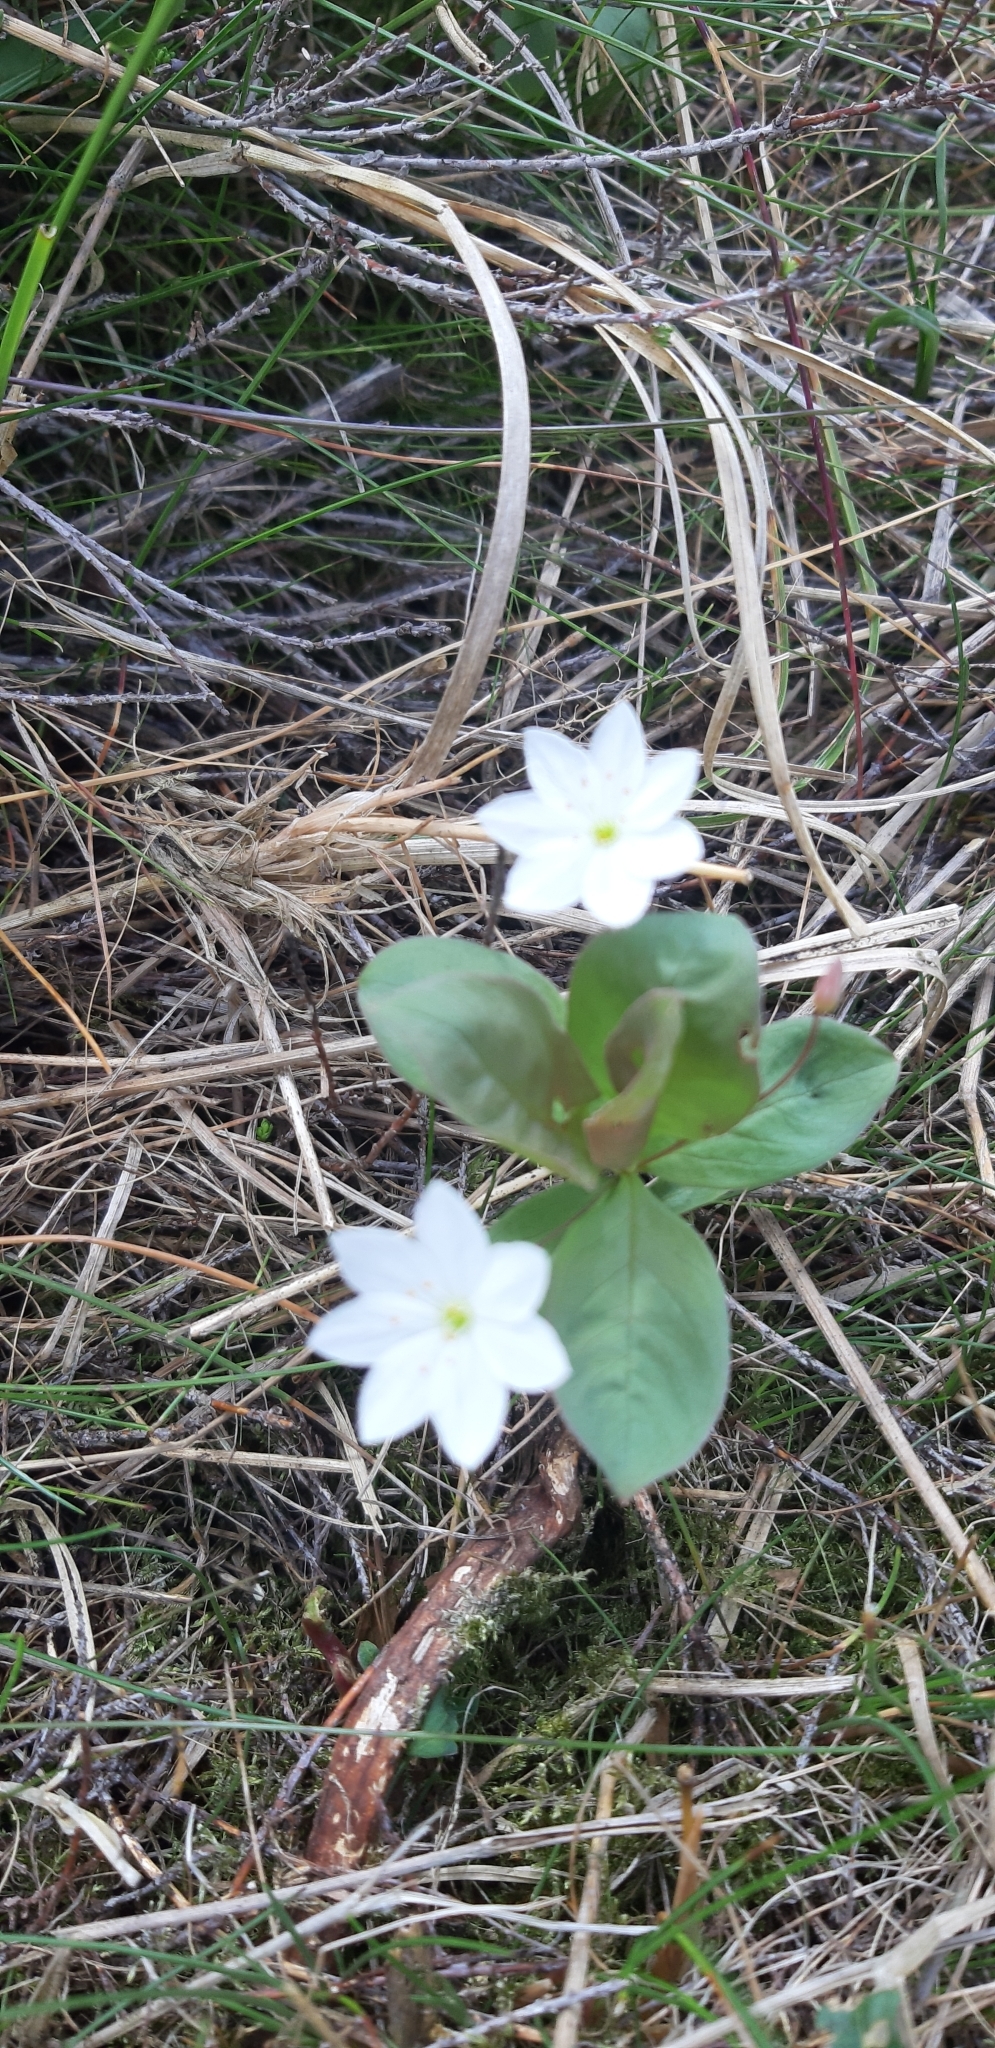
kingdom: Plantae
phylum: Tracheophyta
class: Magnoliopsida
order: Ericales
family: Primulaceae
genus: Lysimachia
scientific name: Lysimachia europaea
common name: Arctic starflower
